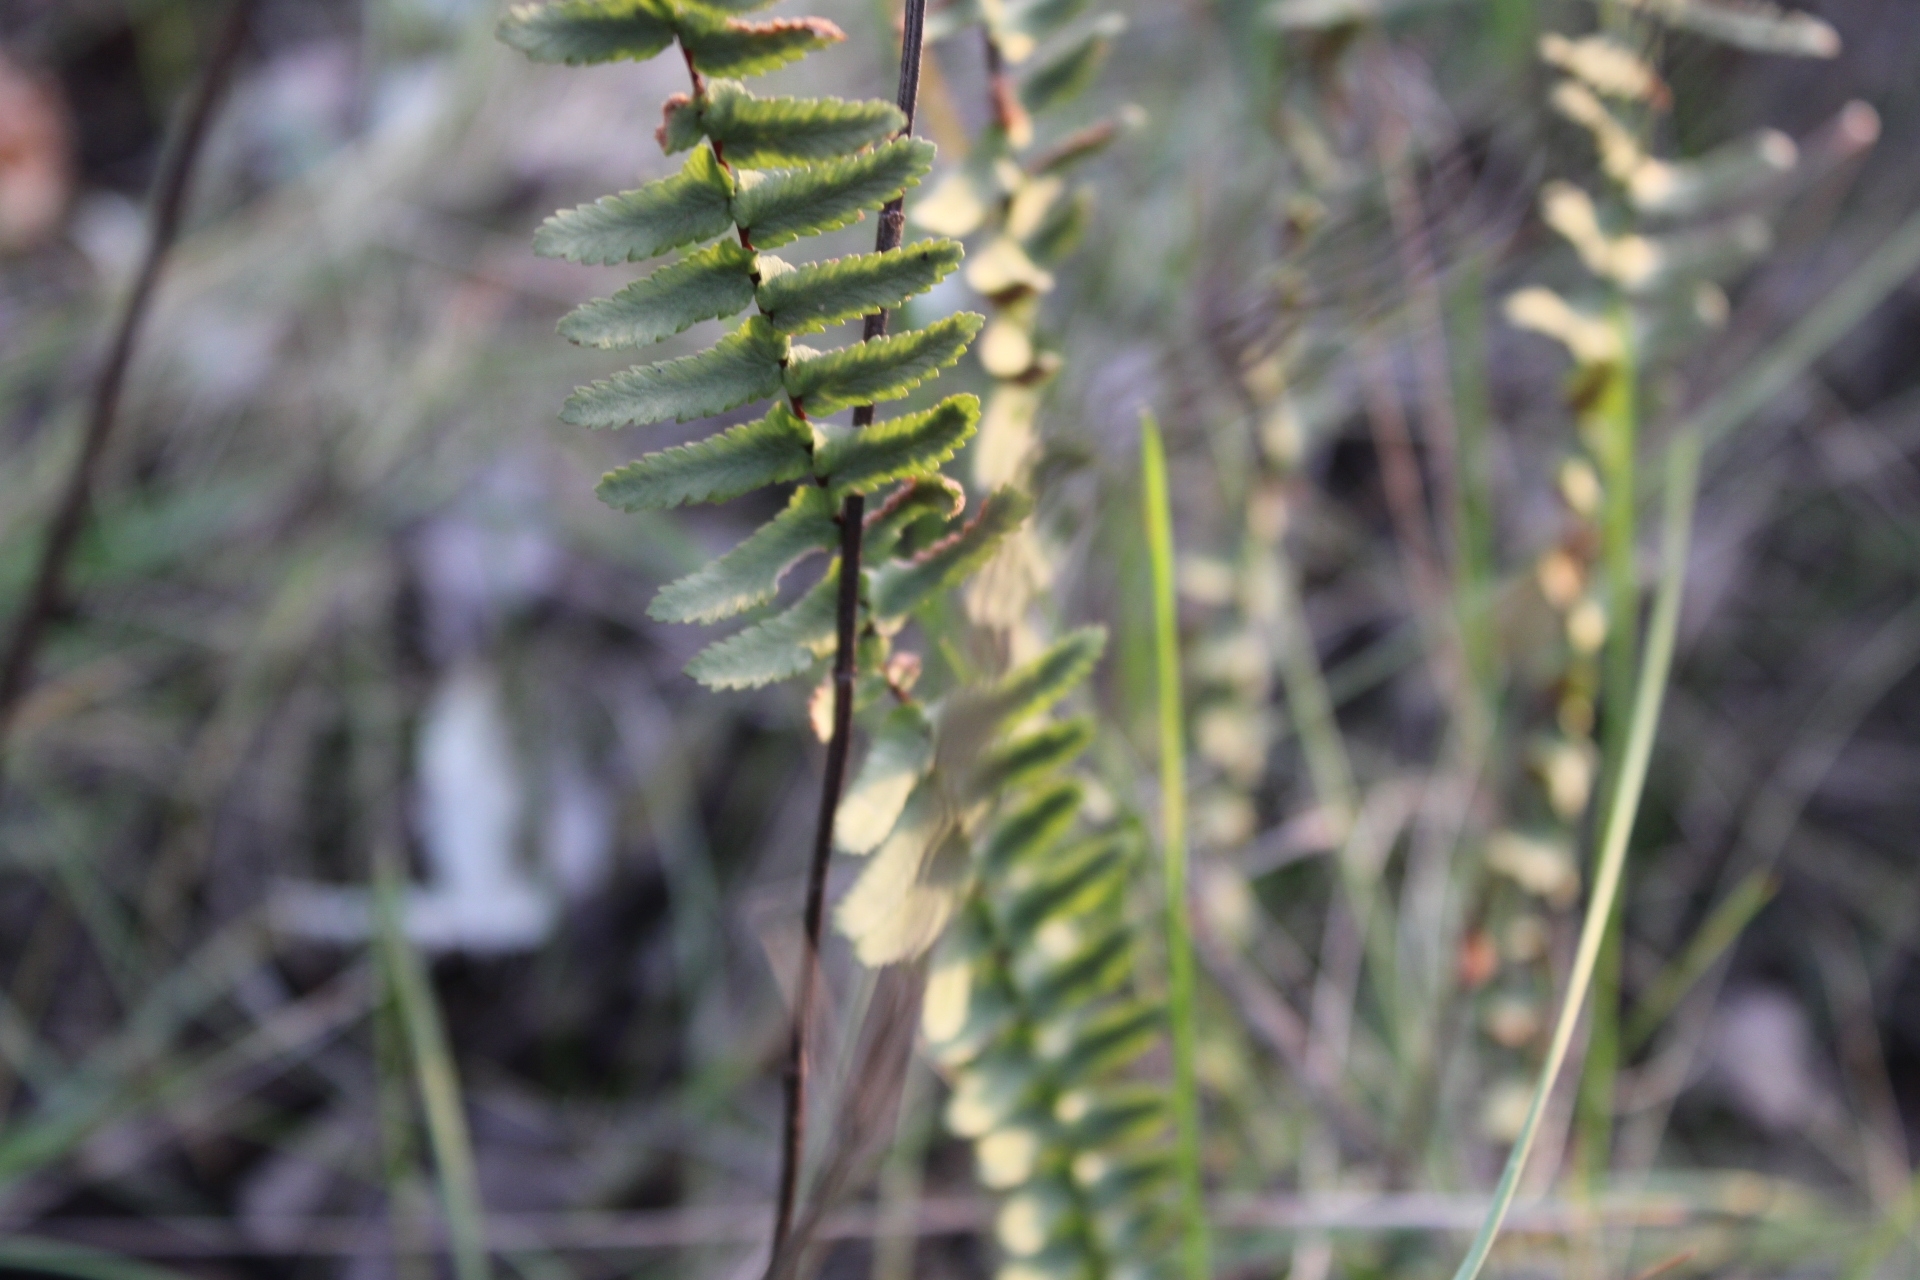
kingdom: Plantae
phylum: Tracheophyta
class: Polypodiopsida
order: Polypodiales
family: Aspleniaceae
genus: Asplenium
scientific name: Asplenium platyneuron
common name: Ebony spleenwort
